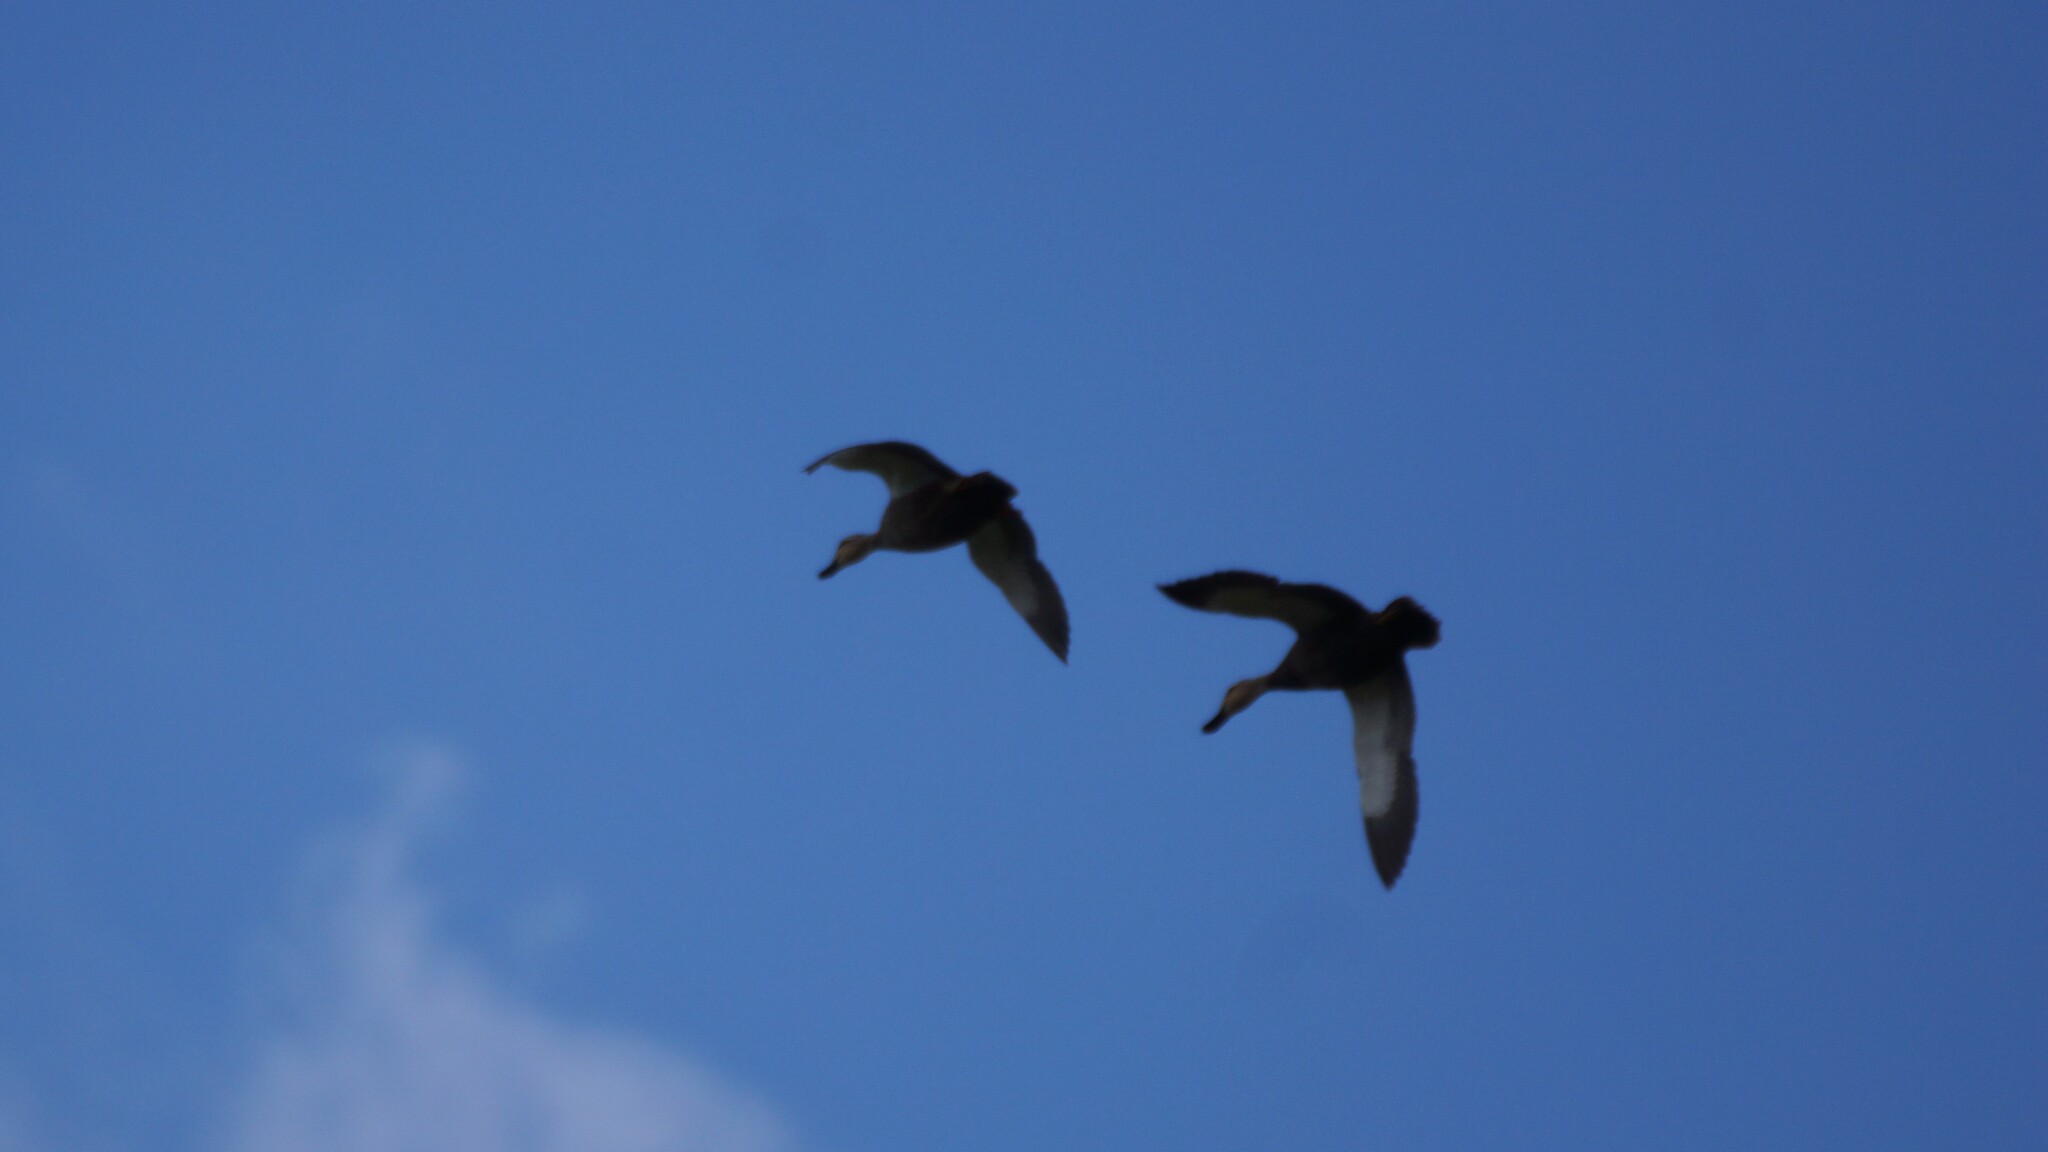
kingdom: Animalia
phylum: Chordata
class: Aves
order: Anseriformes
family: Anatidae
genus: Anas
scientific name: Anas superciliosa
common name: Pacific black duck
